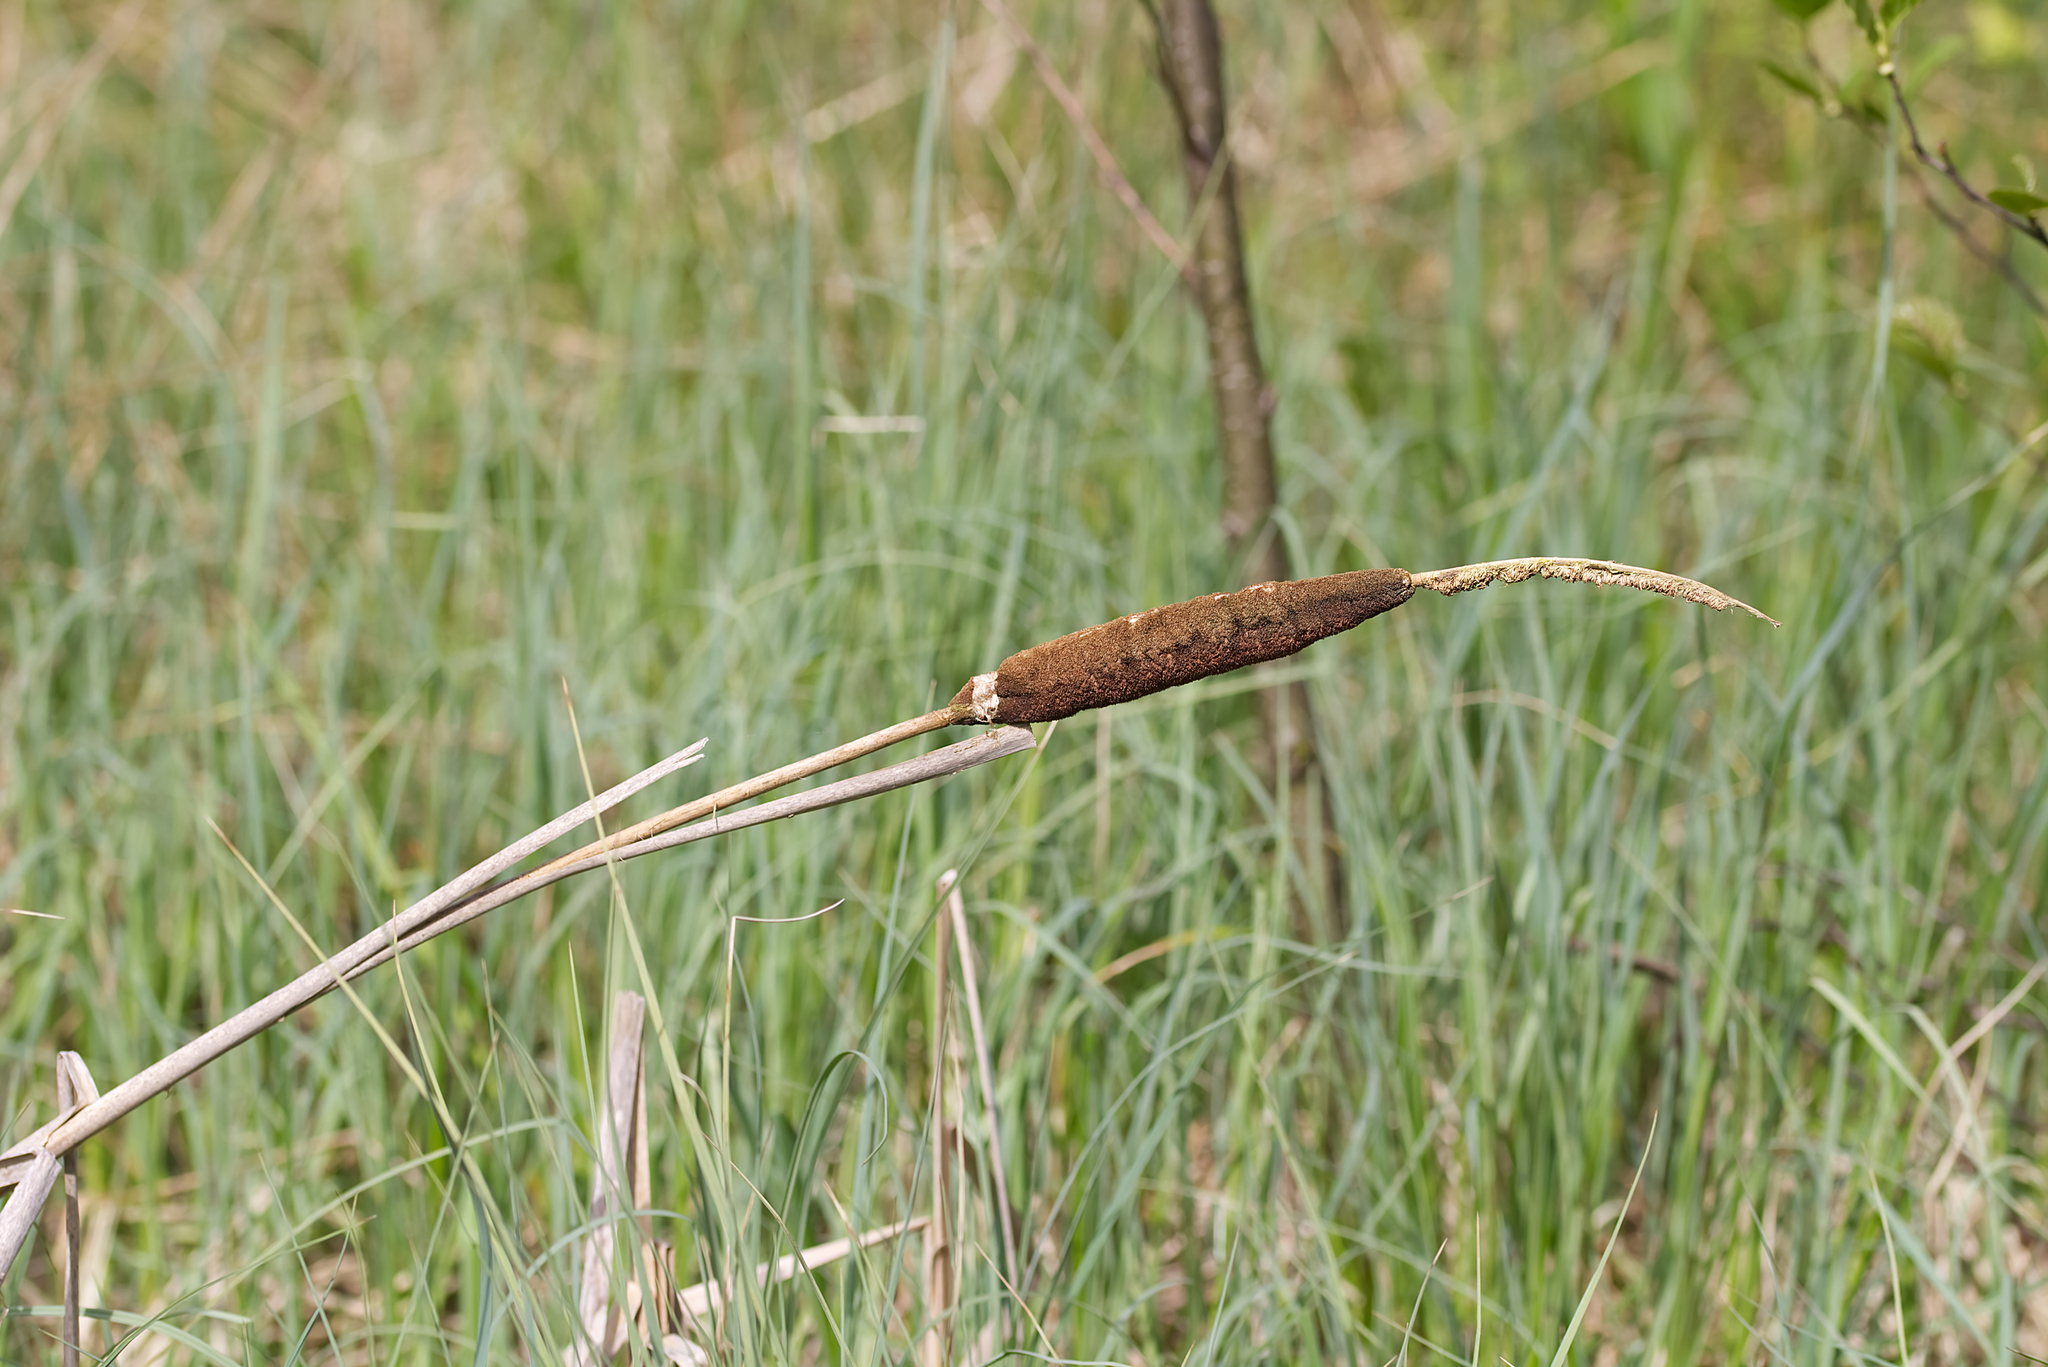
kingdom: Plantae
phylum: Tracheophyta
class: Liliopsida
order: Poales
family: Typhaceae
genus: Typha
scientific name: Typha latifolia
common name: Broadleaf cattail
